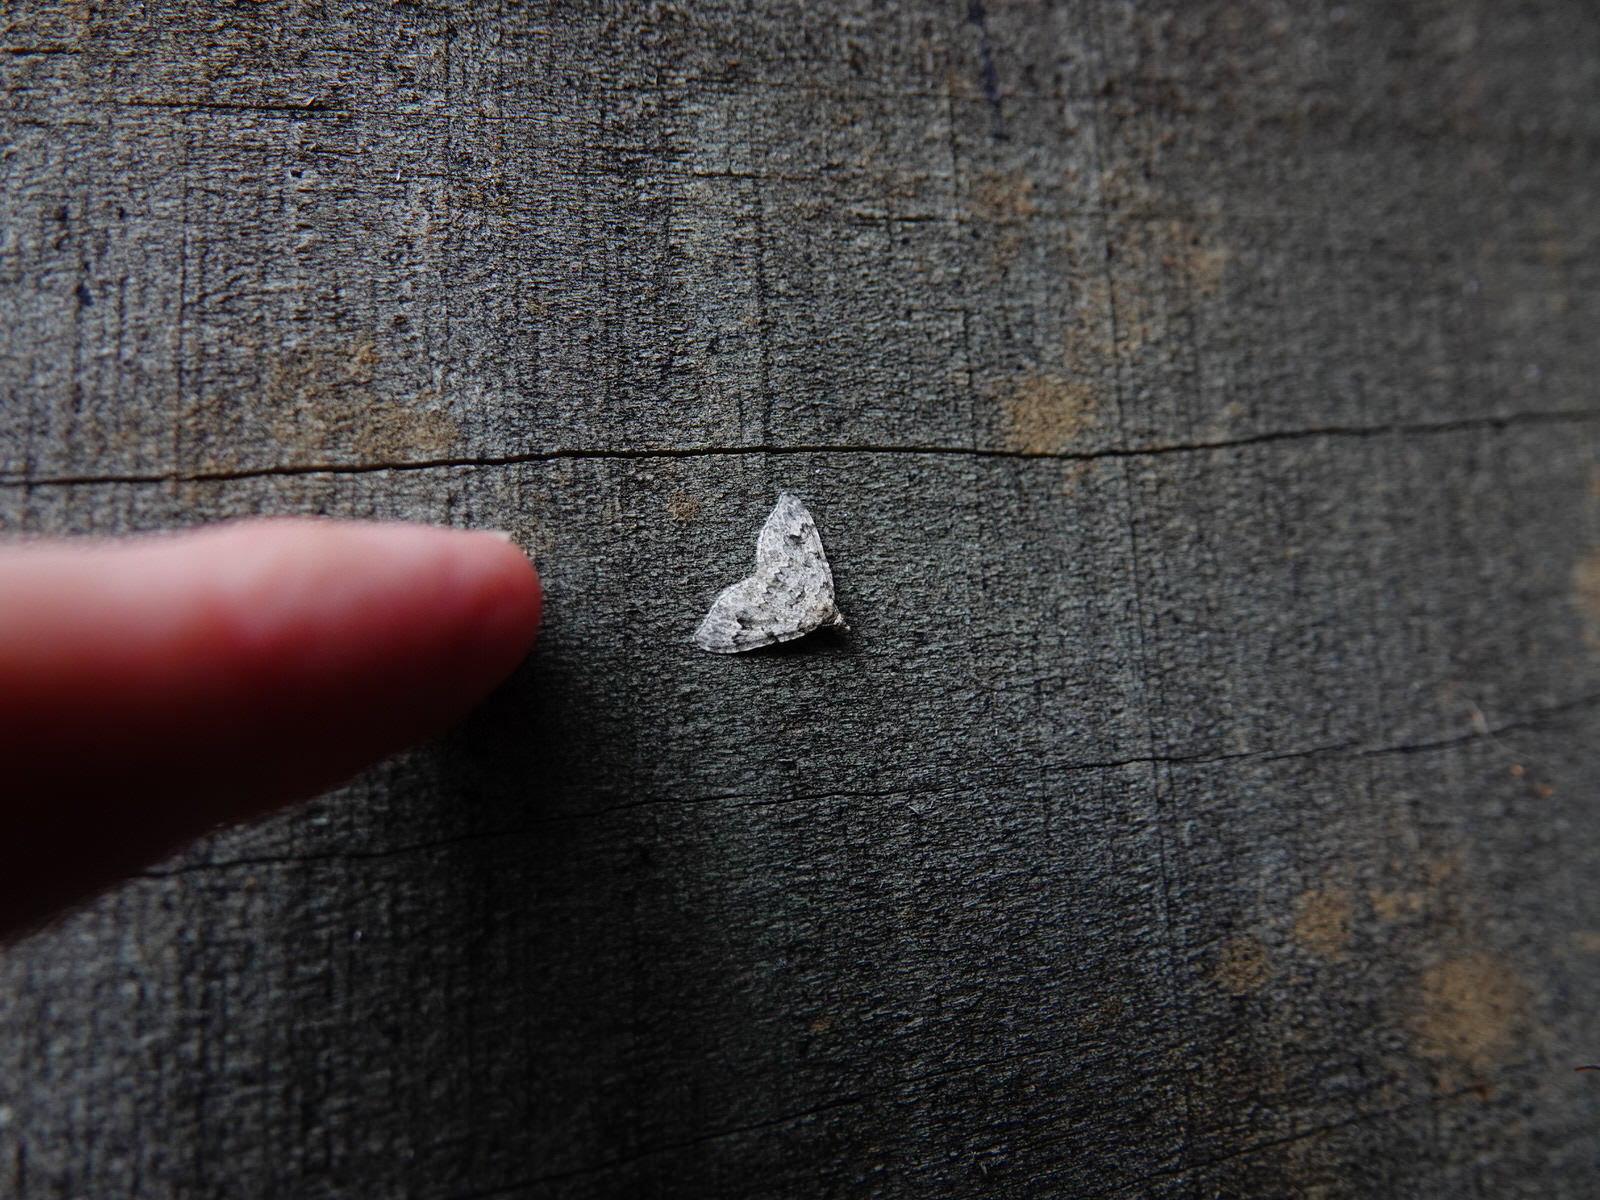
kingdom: Animalia
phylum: Arthropoda
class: Insecta
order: Lepidoptera
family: Geometridae
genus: Helastia
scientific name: Helastia cinerearia
